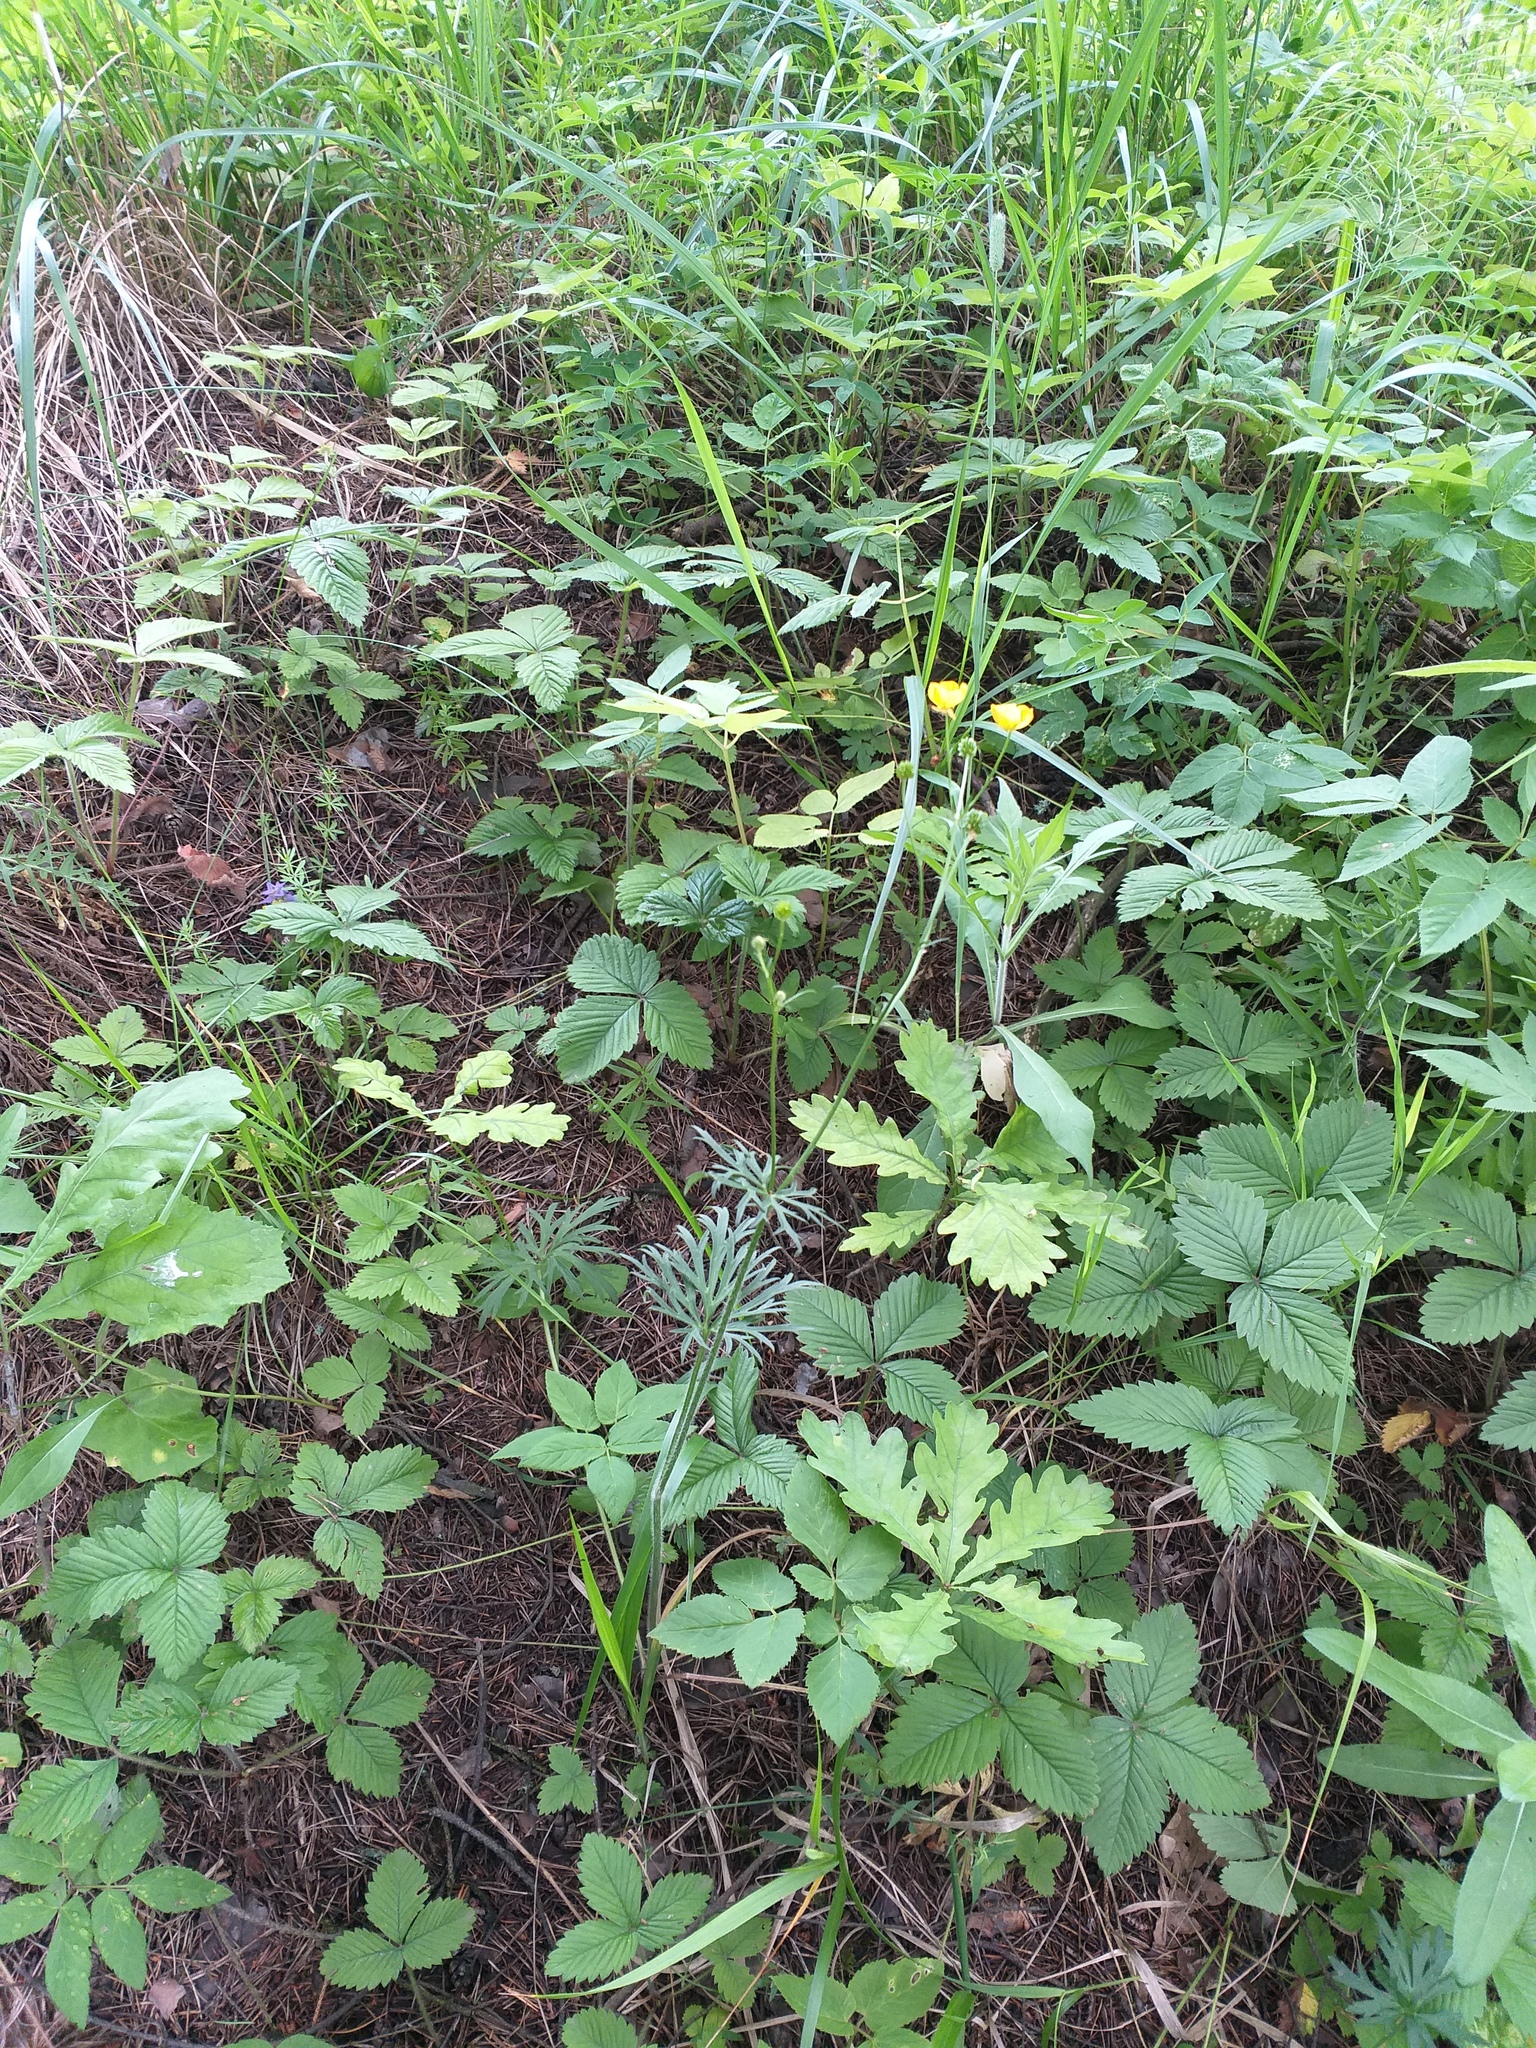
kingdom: Plantae
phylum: Tracheophyta
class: Magnoliopsida
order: Ranunculales
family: Ranunculaceae
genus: Ranunculus
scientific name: Ranunculus polyanthemos
